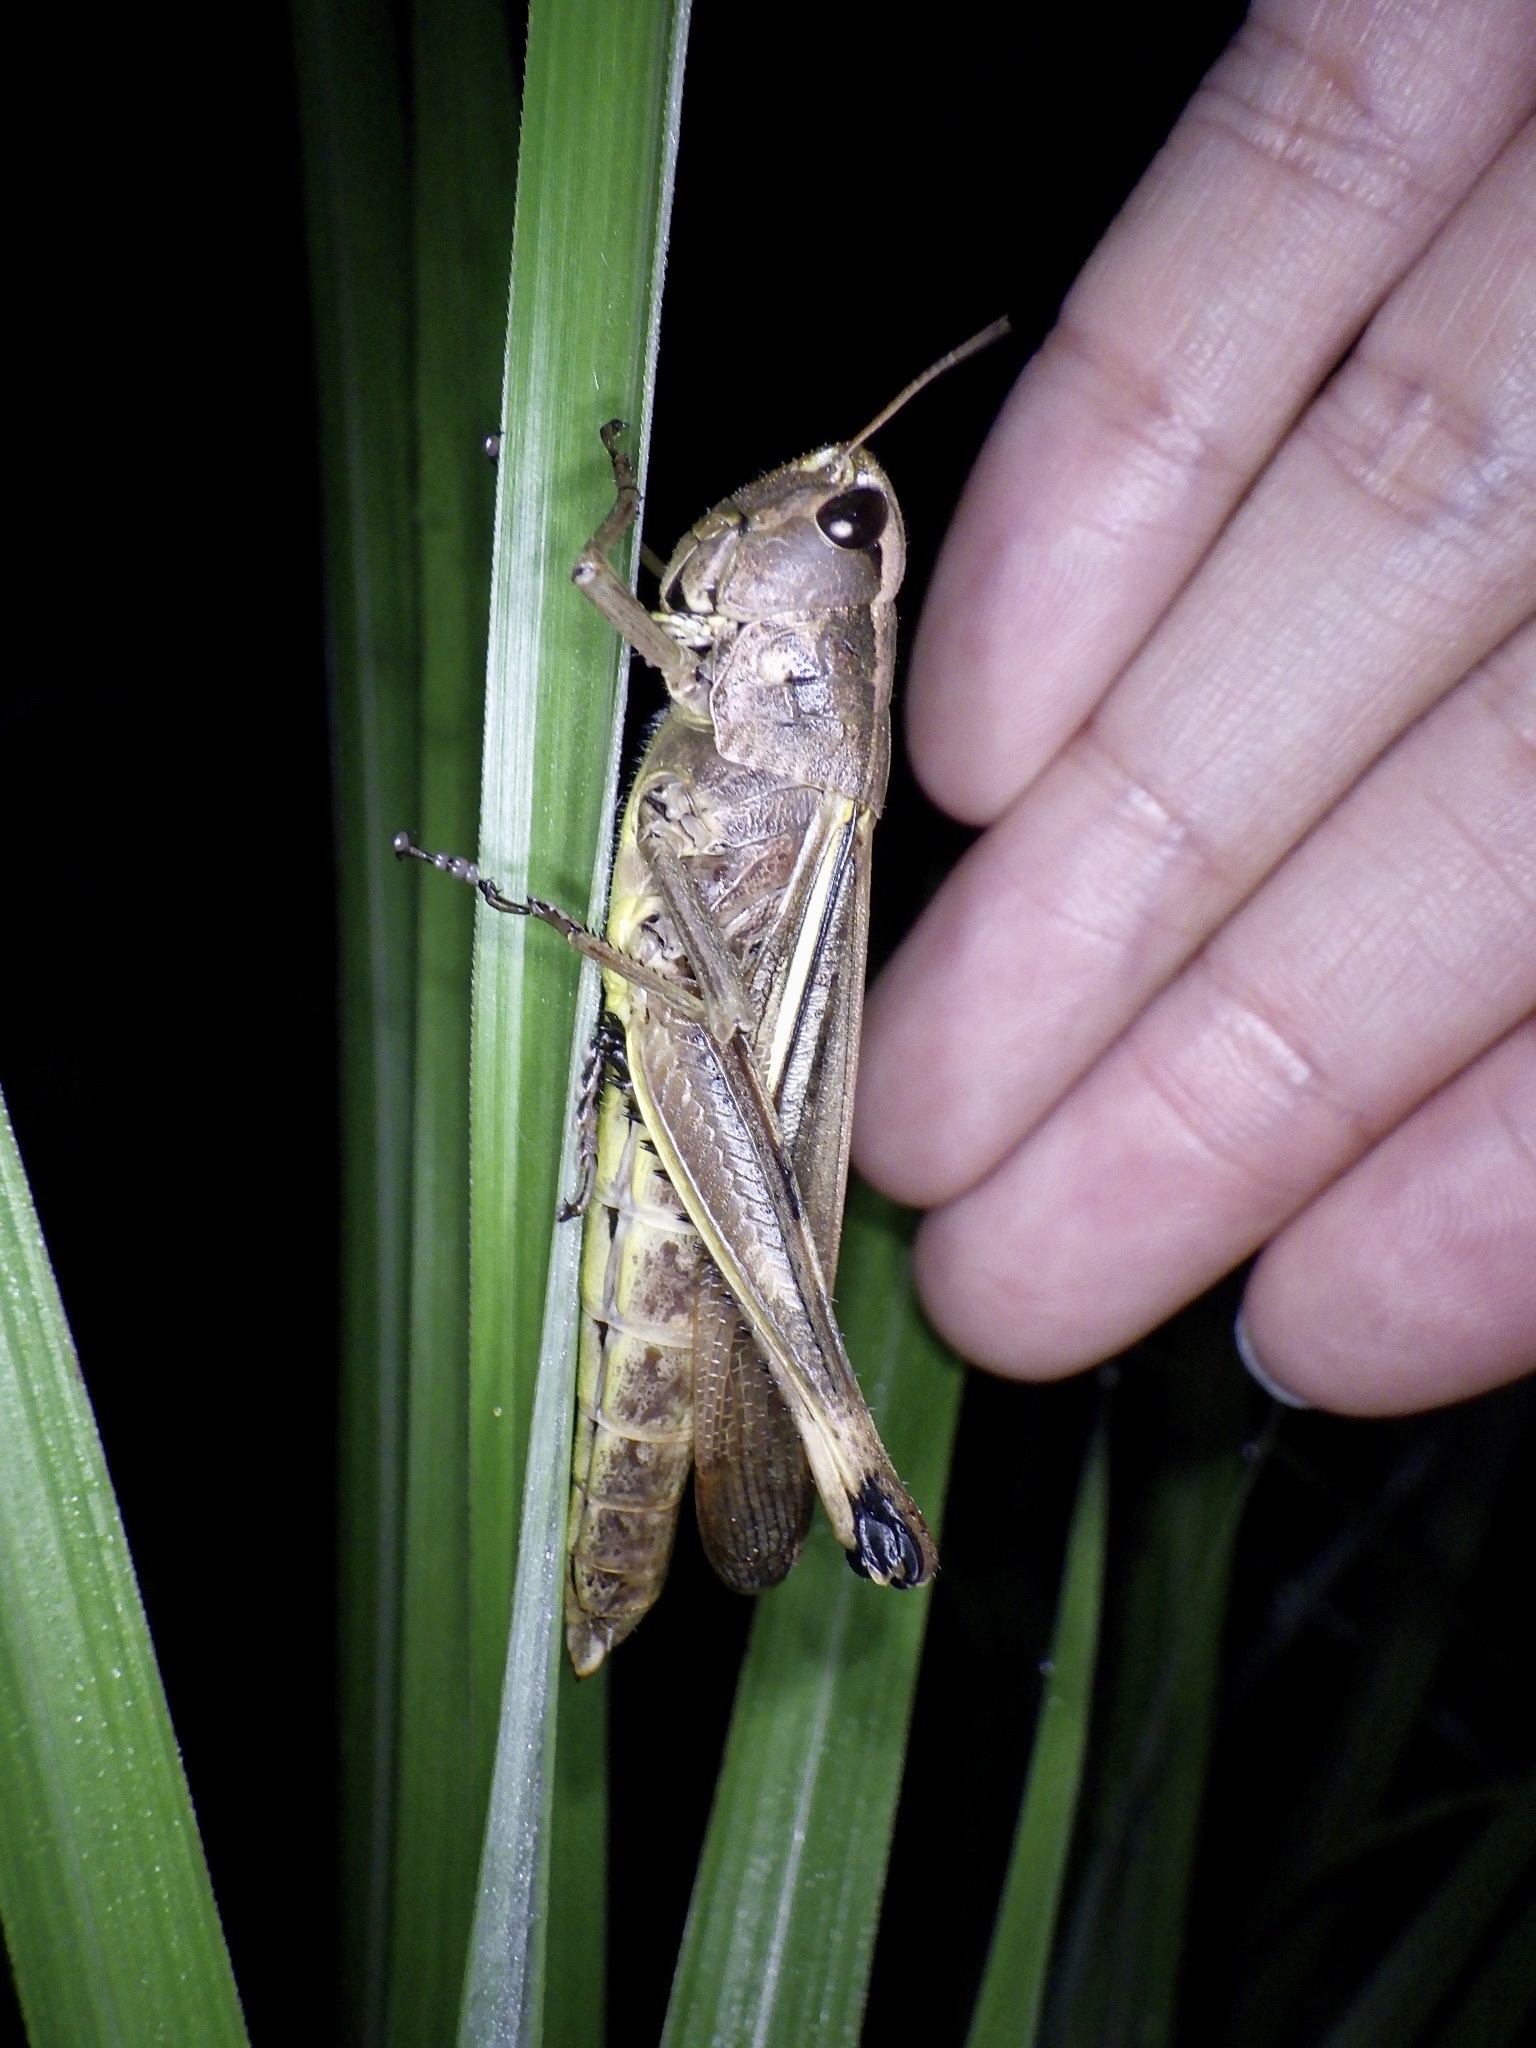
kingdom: Animalia
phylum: Arthropoda
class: Insecta
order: Orthoptera
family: Acrididae
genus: Stethophyma
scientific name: Stethophyma magister
